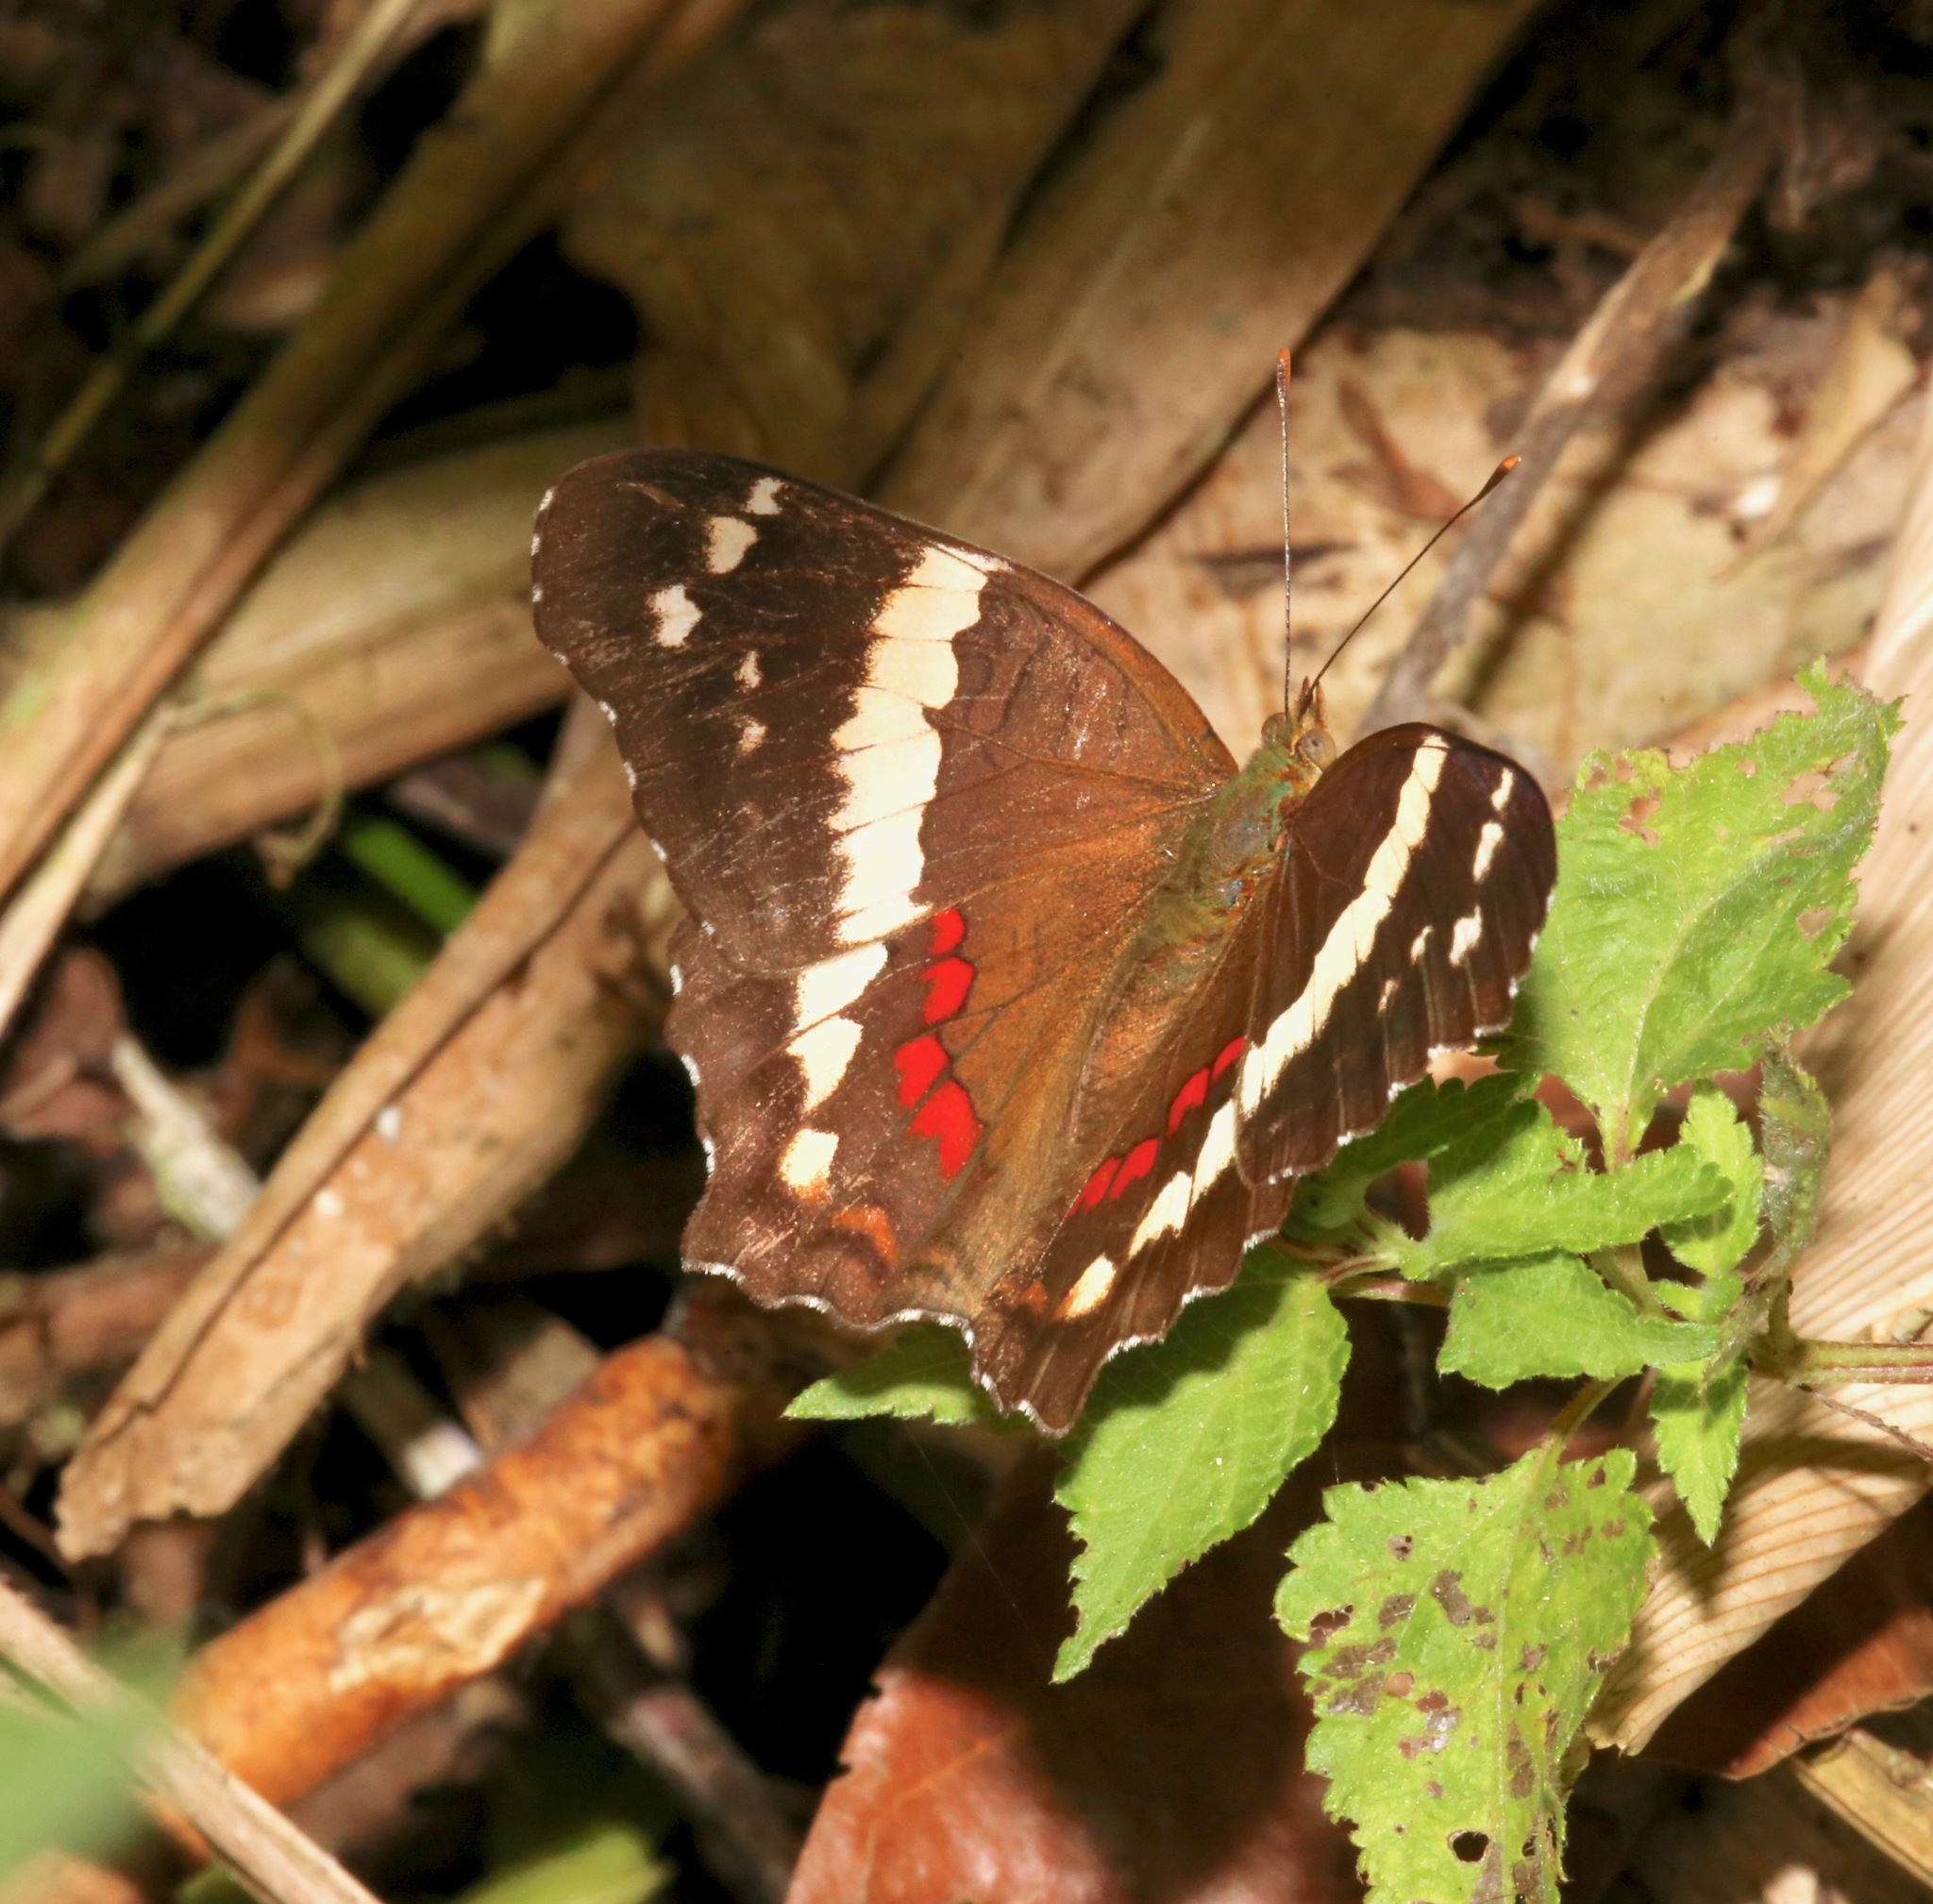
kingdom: Animalia
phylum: Arthropoda
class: Insecta
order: Lepidoptera
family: Nymphalidae
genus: Anartia
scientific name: Anartia fatima
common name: Banded peacock
